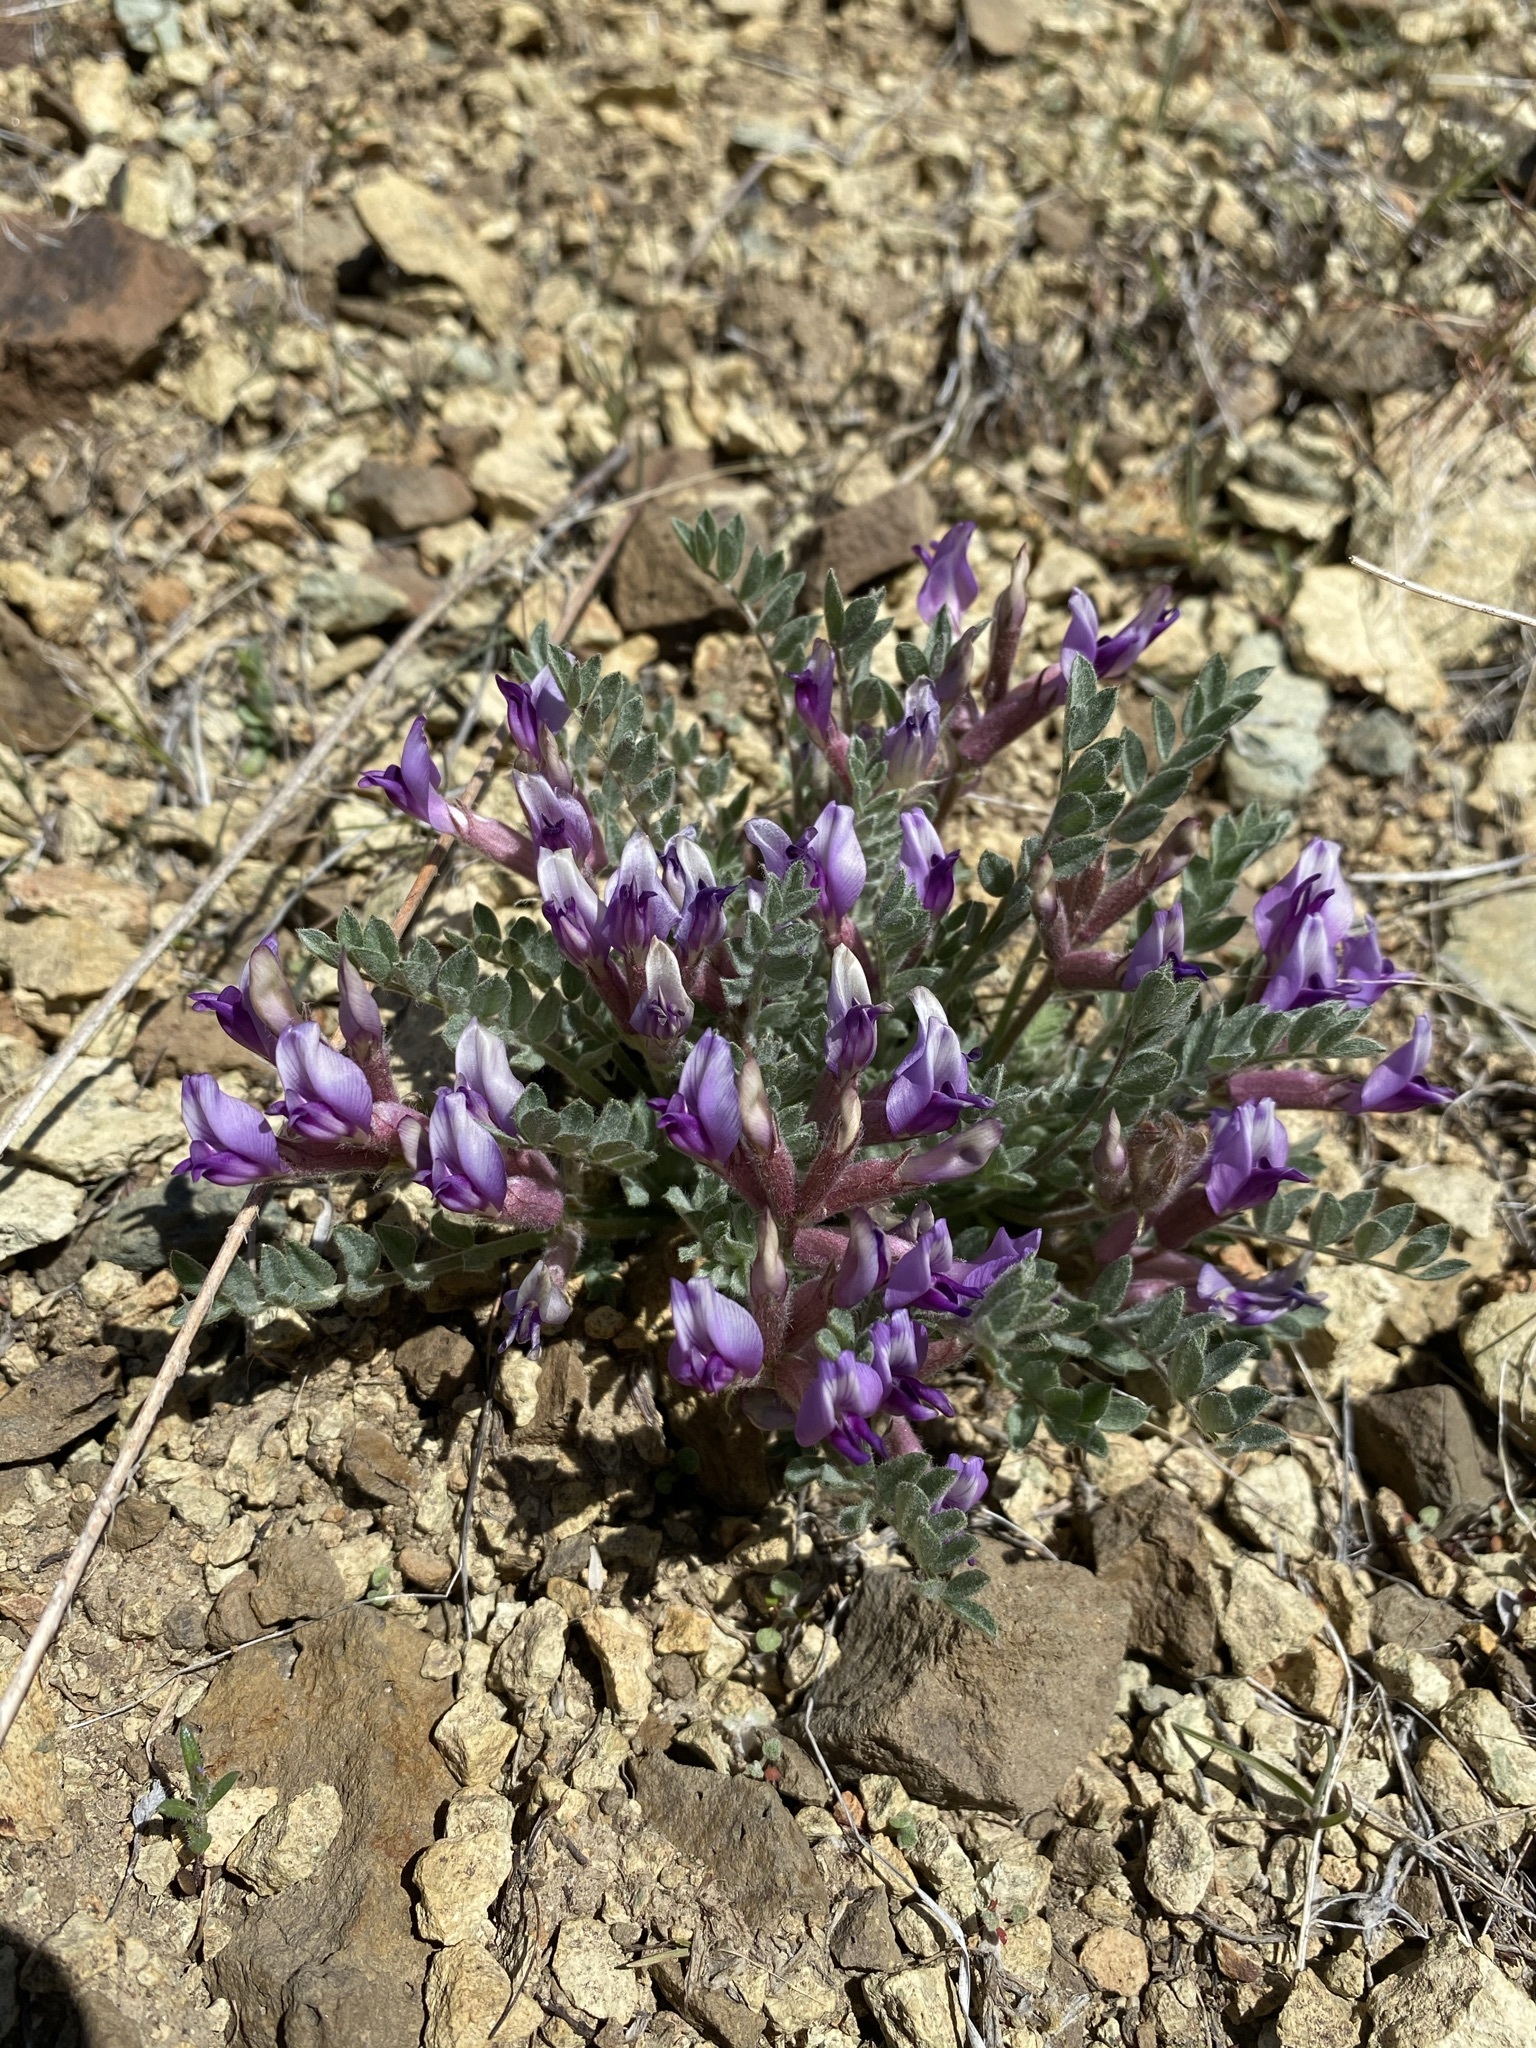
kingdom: Plantae
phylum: Tracheophyta
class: Magnoliopsida
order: Fabales
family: Fabaceae
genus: Astragalus
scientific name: Astragalus purshii
